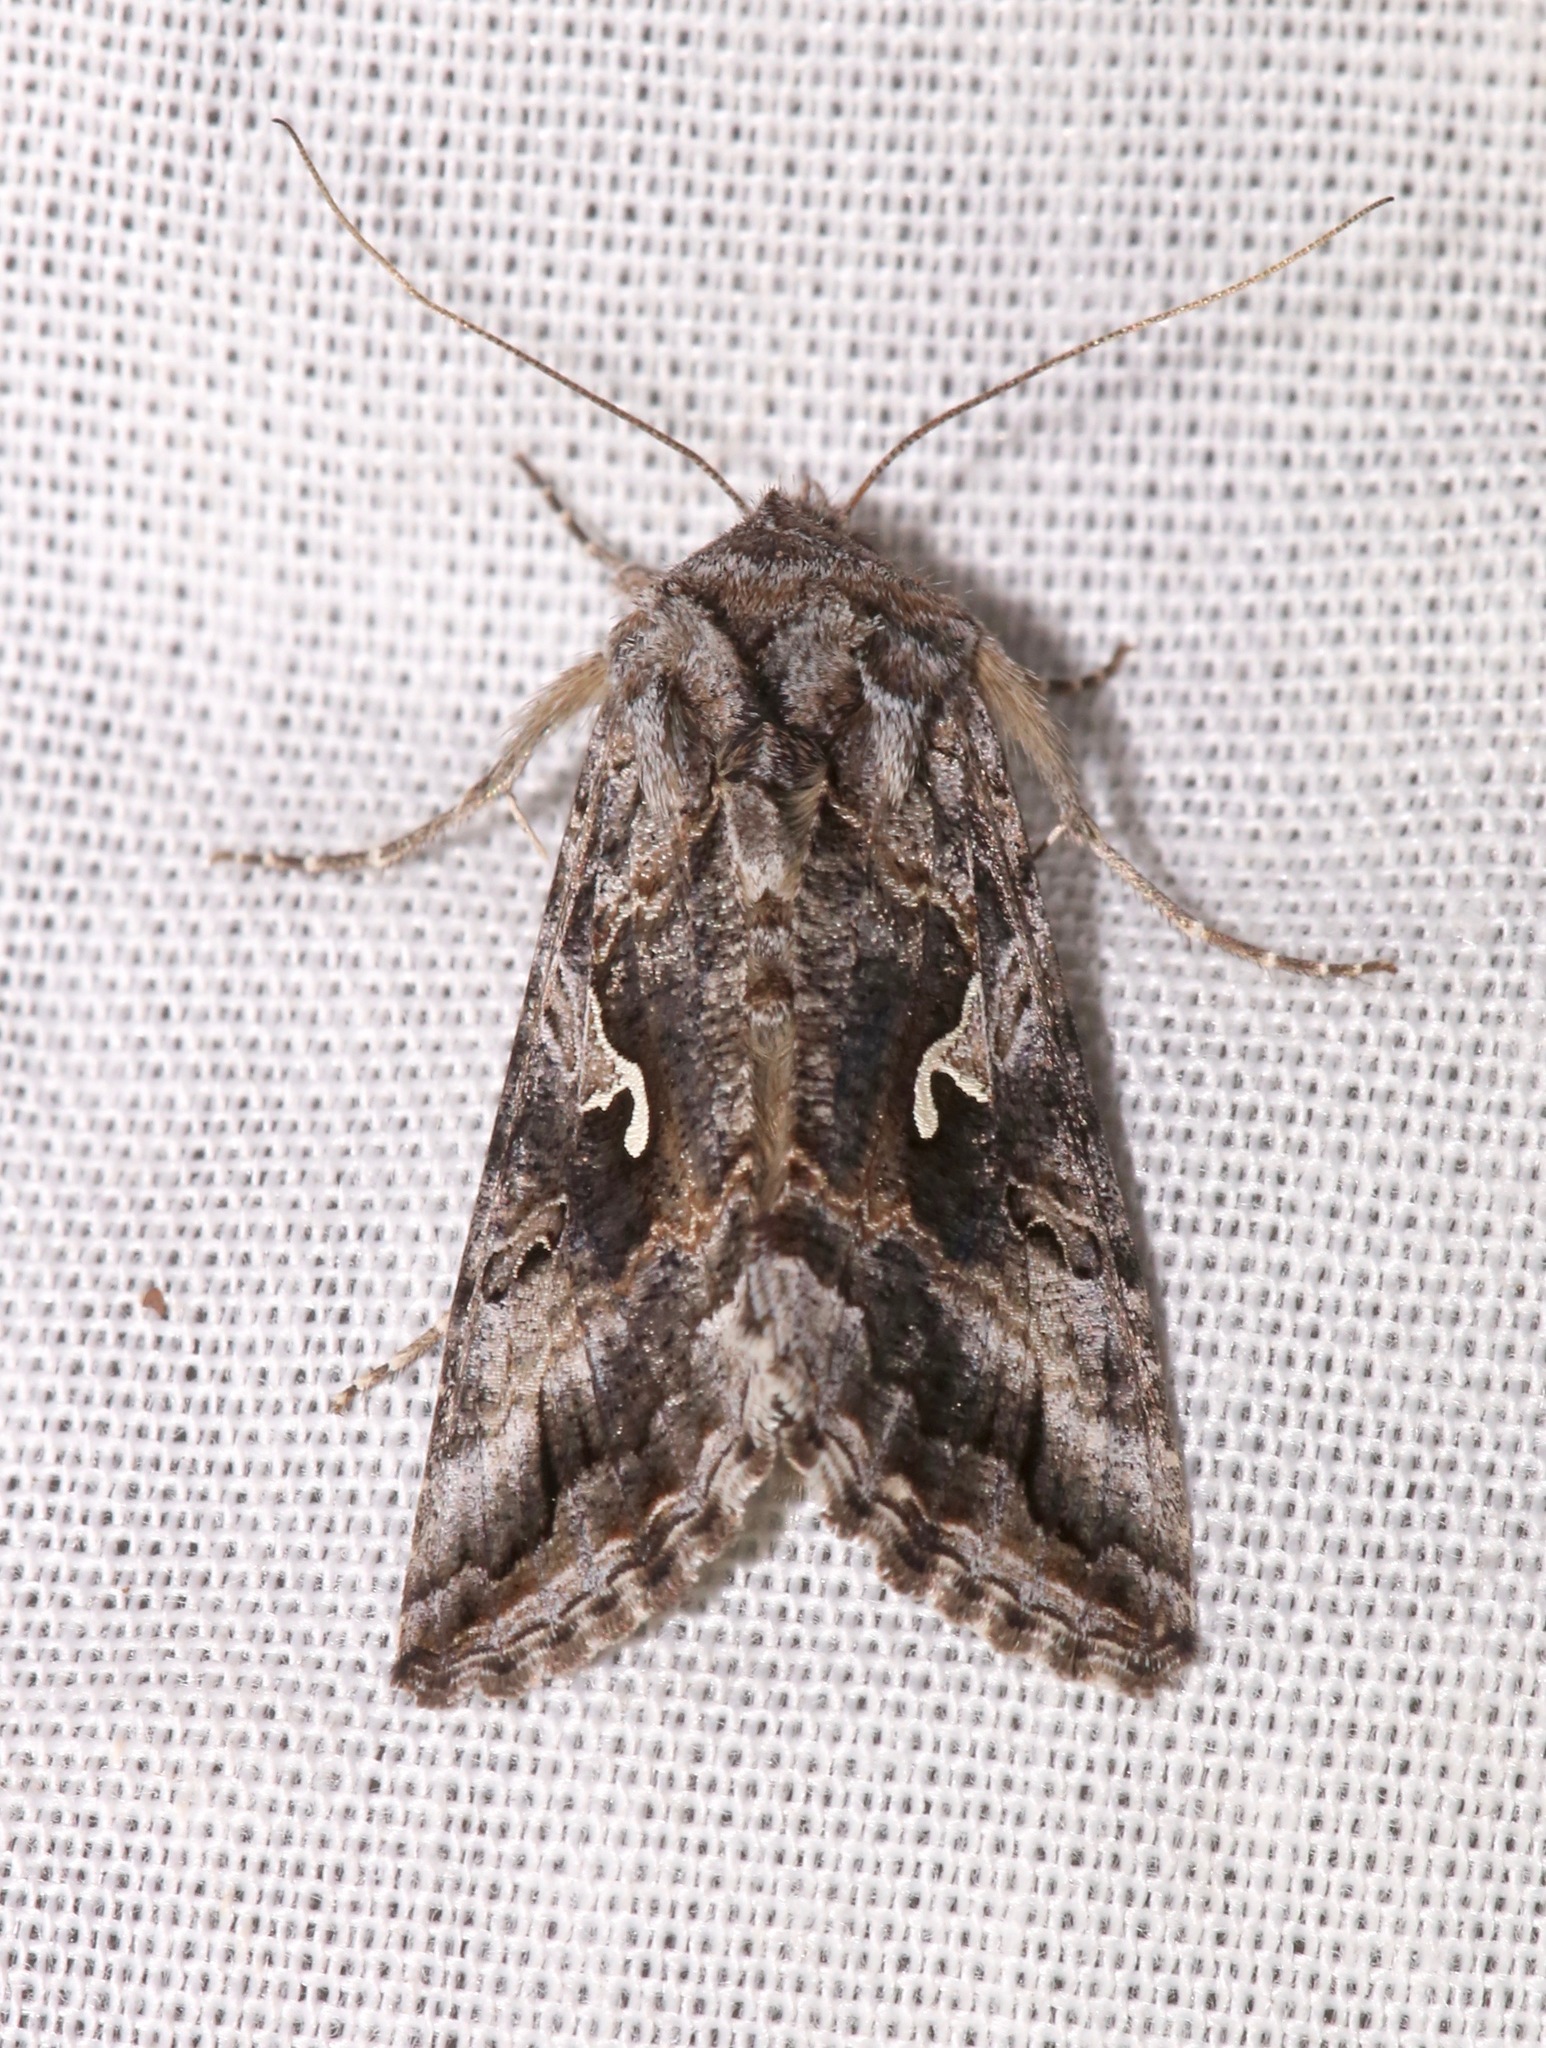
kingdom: Animalia
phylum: Arthropoda
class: Insecta
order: Lepidoptera
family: Noctuidae
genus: Autographa
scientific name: Autographa californica
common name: Alfalfa looper
